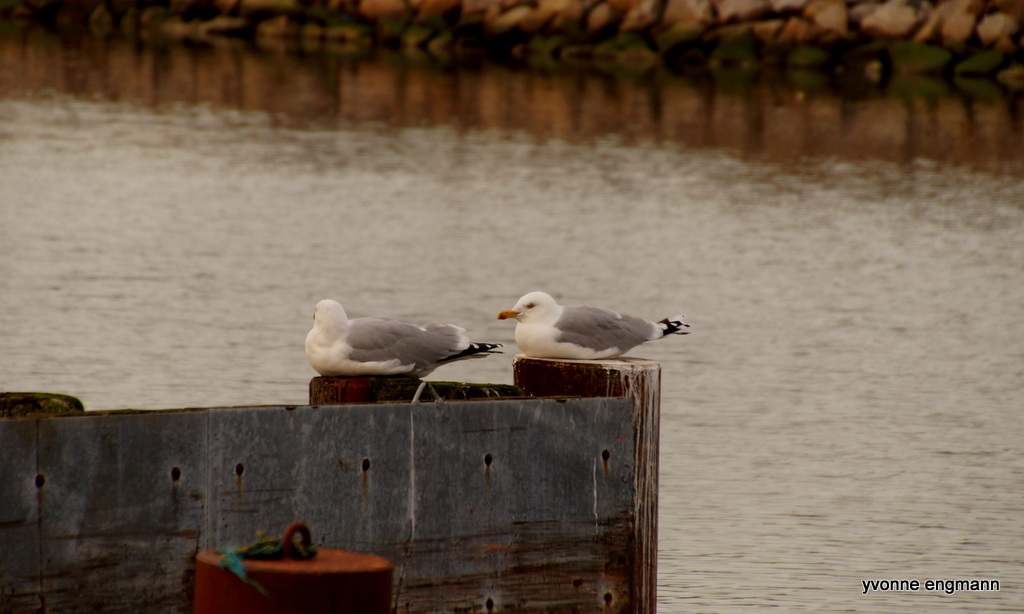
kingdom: Animalia
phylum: Chordata
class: Aves
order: Charadriiformes
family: Laridae
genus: Larus
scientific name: Larus argentatus
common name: Herring gull
